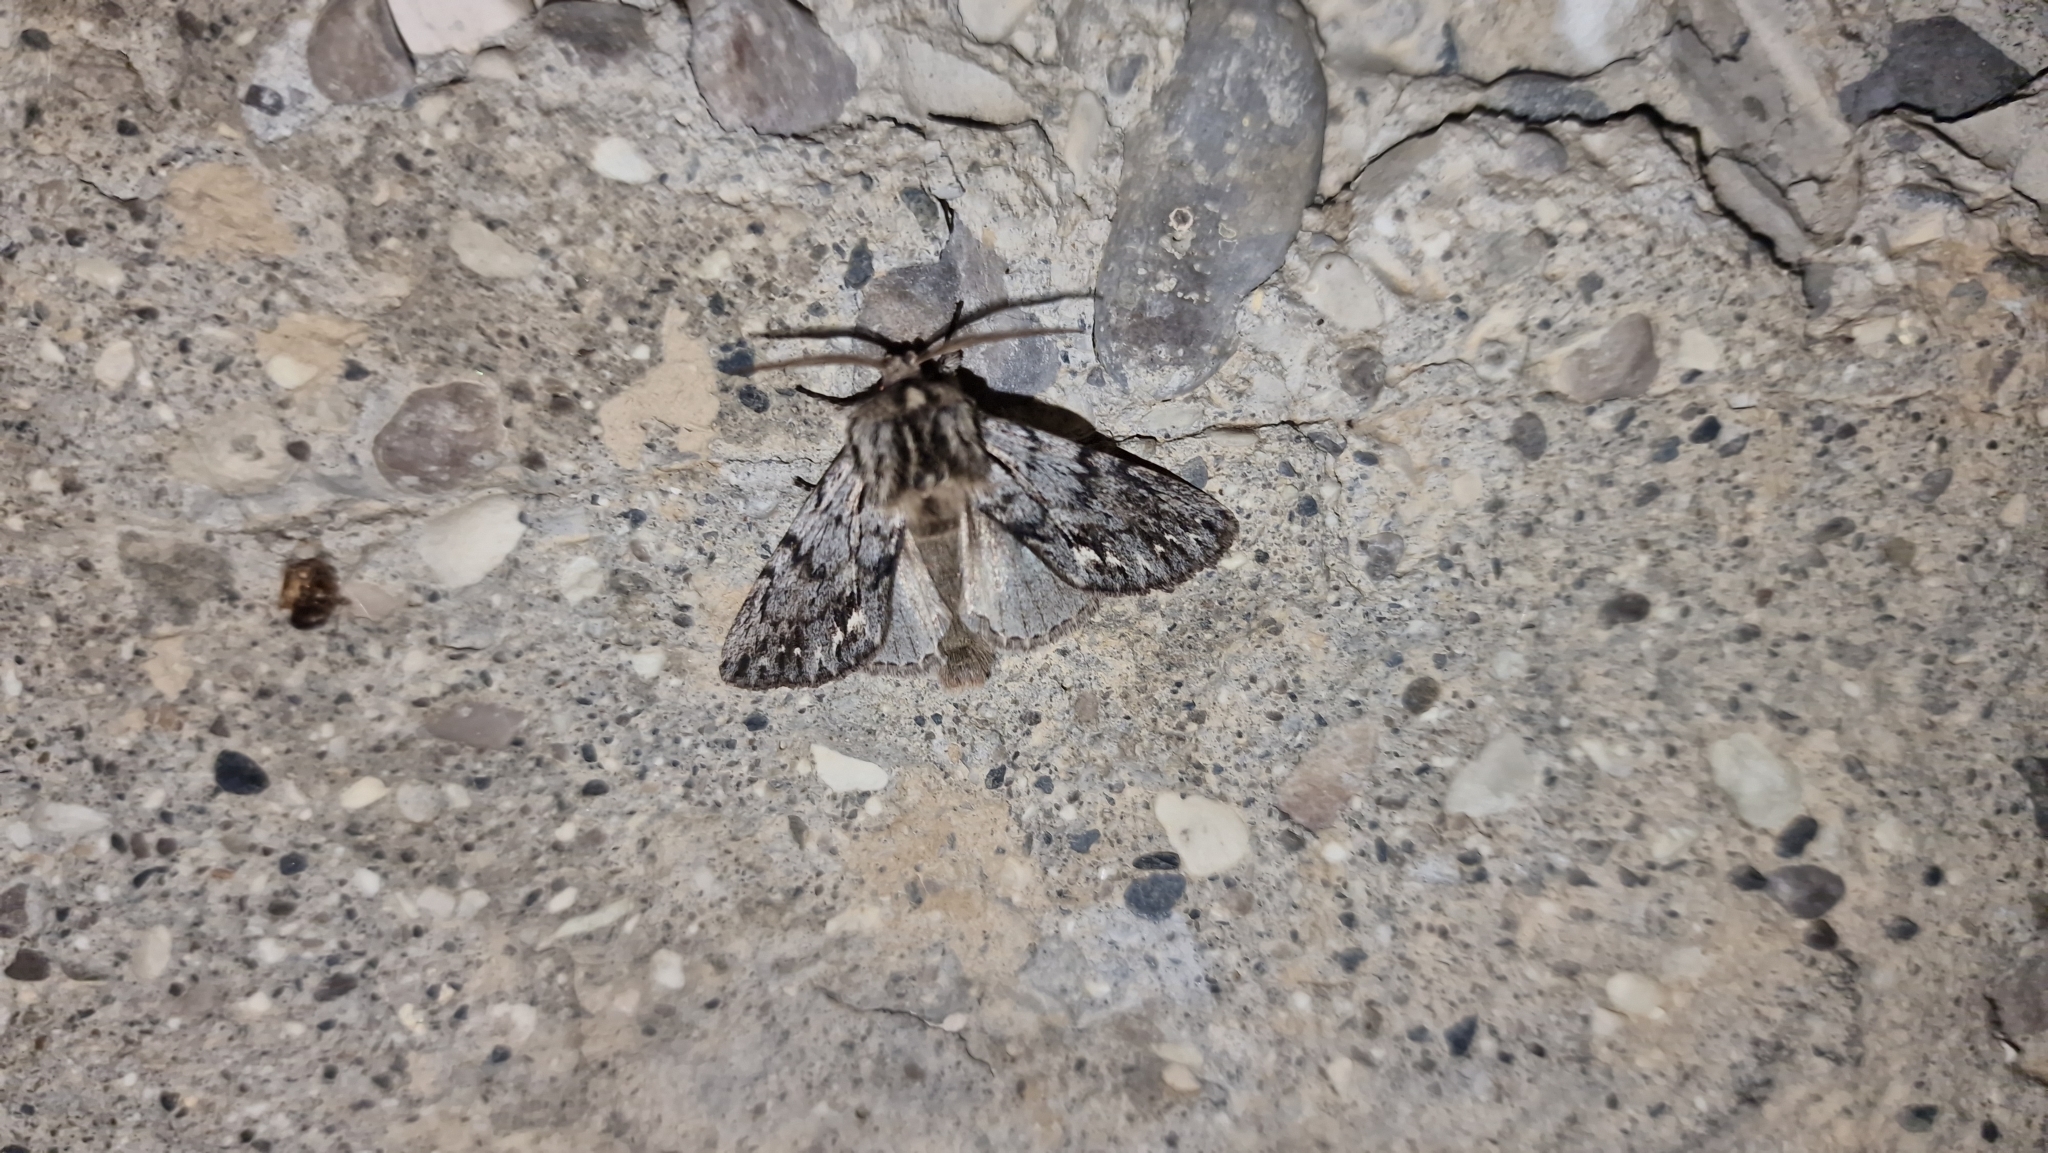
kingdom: Animalia
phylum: Arthropoda
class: Insecta
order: Lepidoptera
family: Noctuidae
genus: Asteroscopus
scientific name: Asteroscopus syriaca
